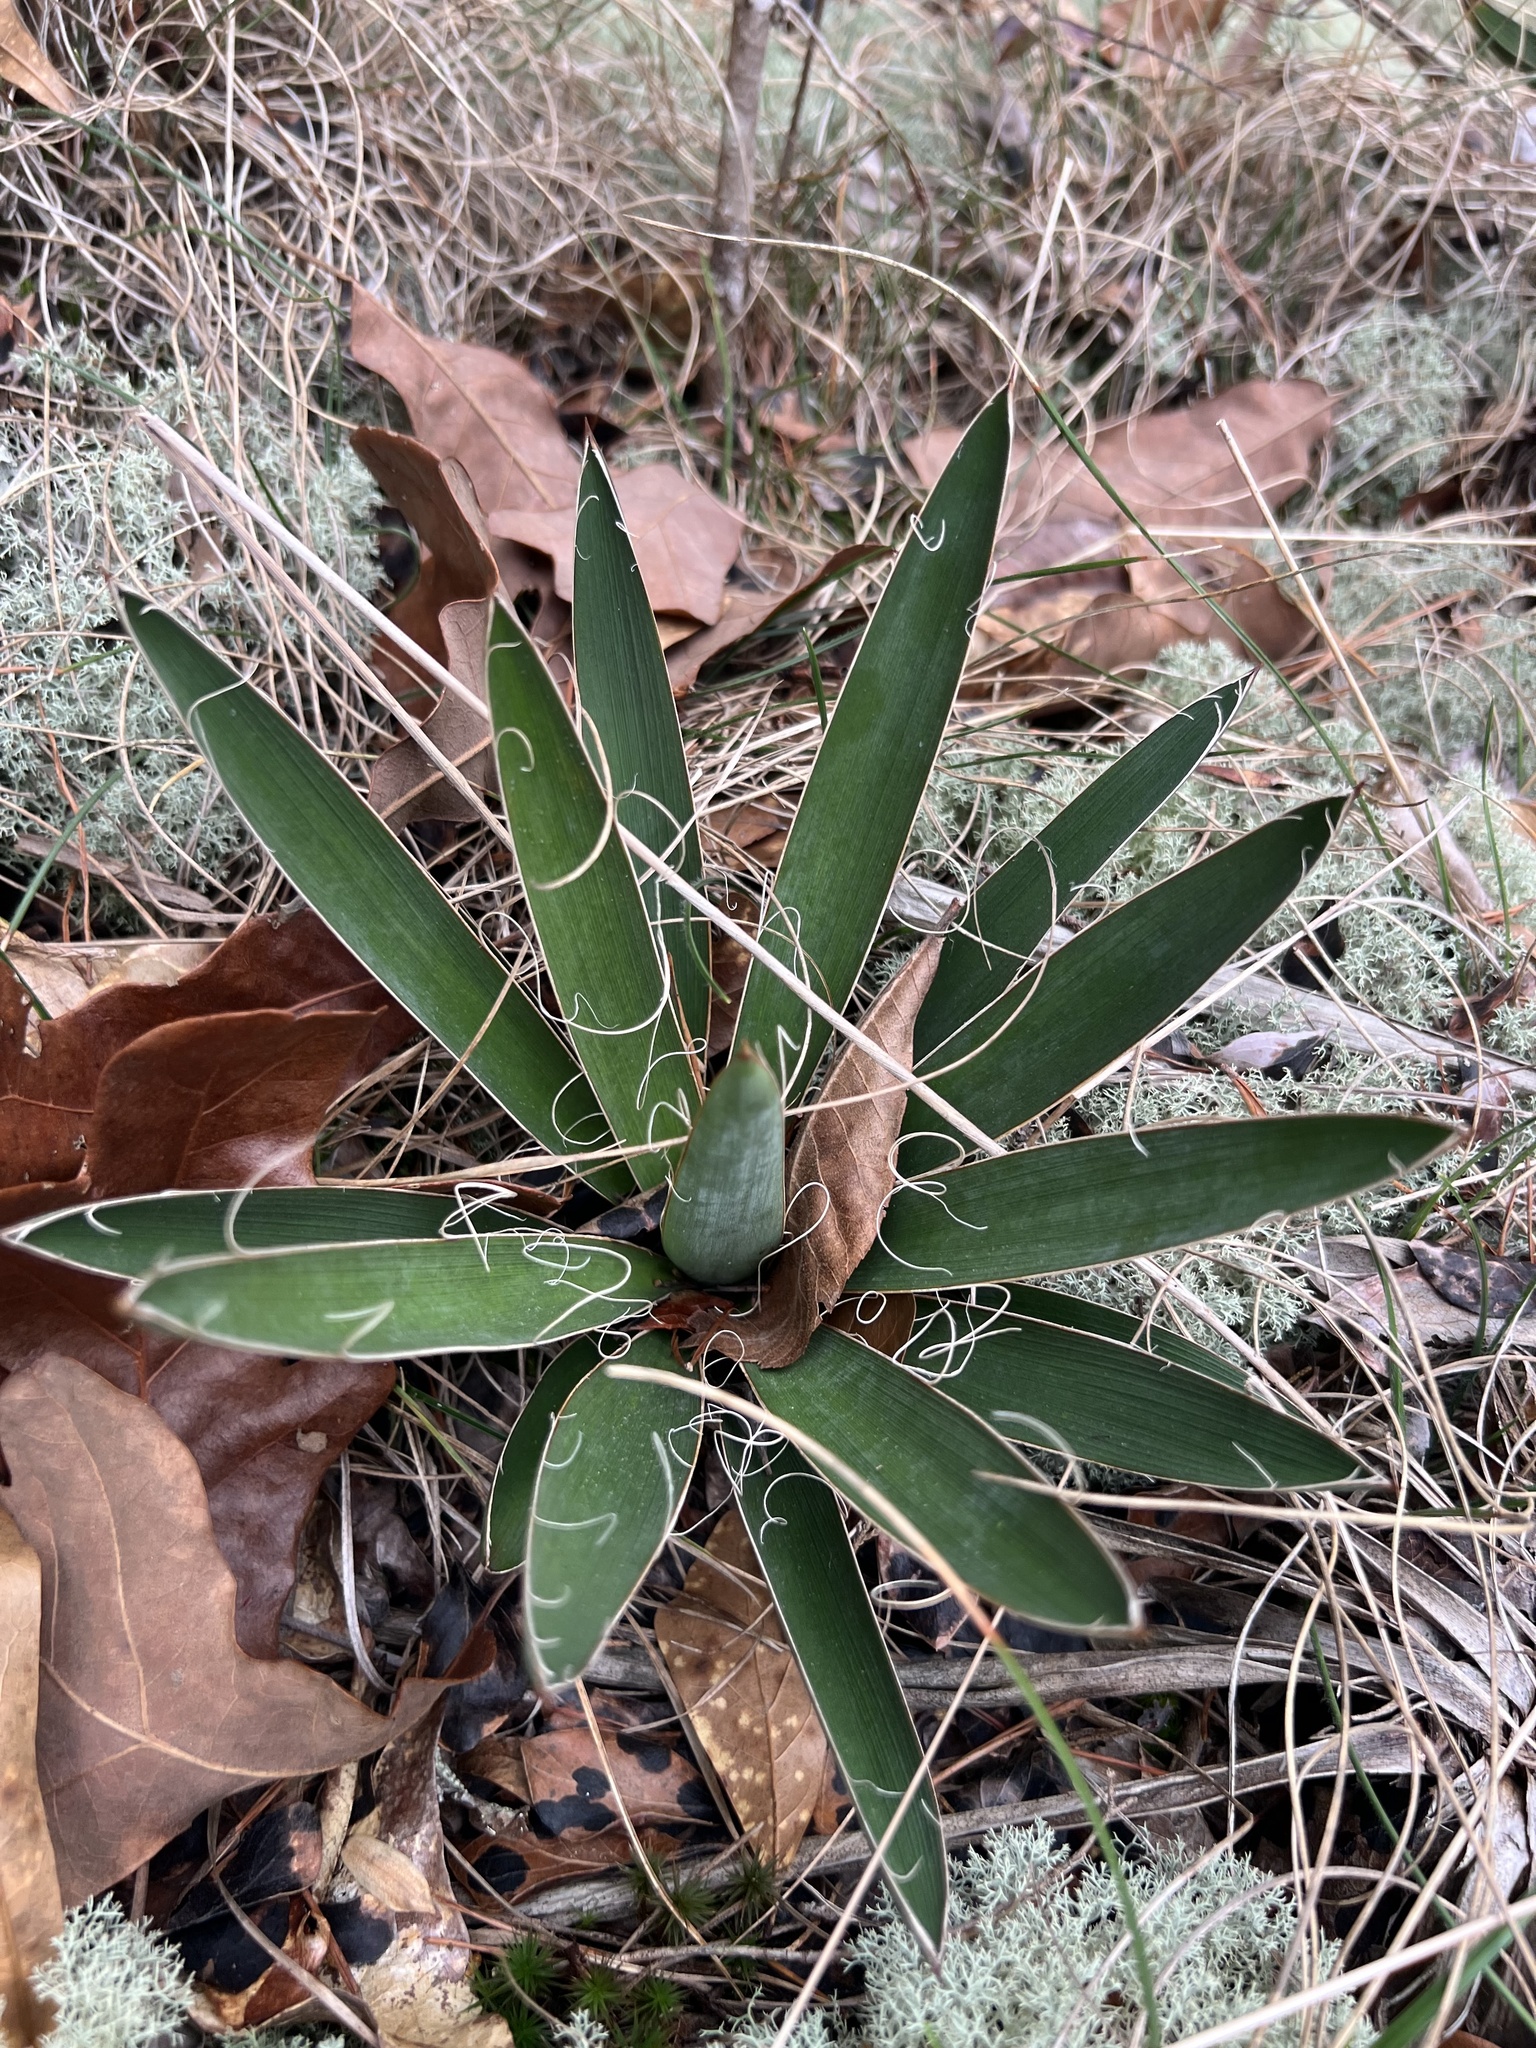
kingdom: Plantae
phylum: Tracheophyta
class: Liliopsida
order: Asparagales
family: Asparagaceae
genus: Yucca
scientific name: Yucca filamentosa
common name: Adam's-needle
